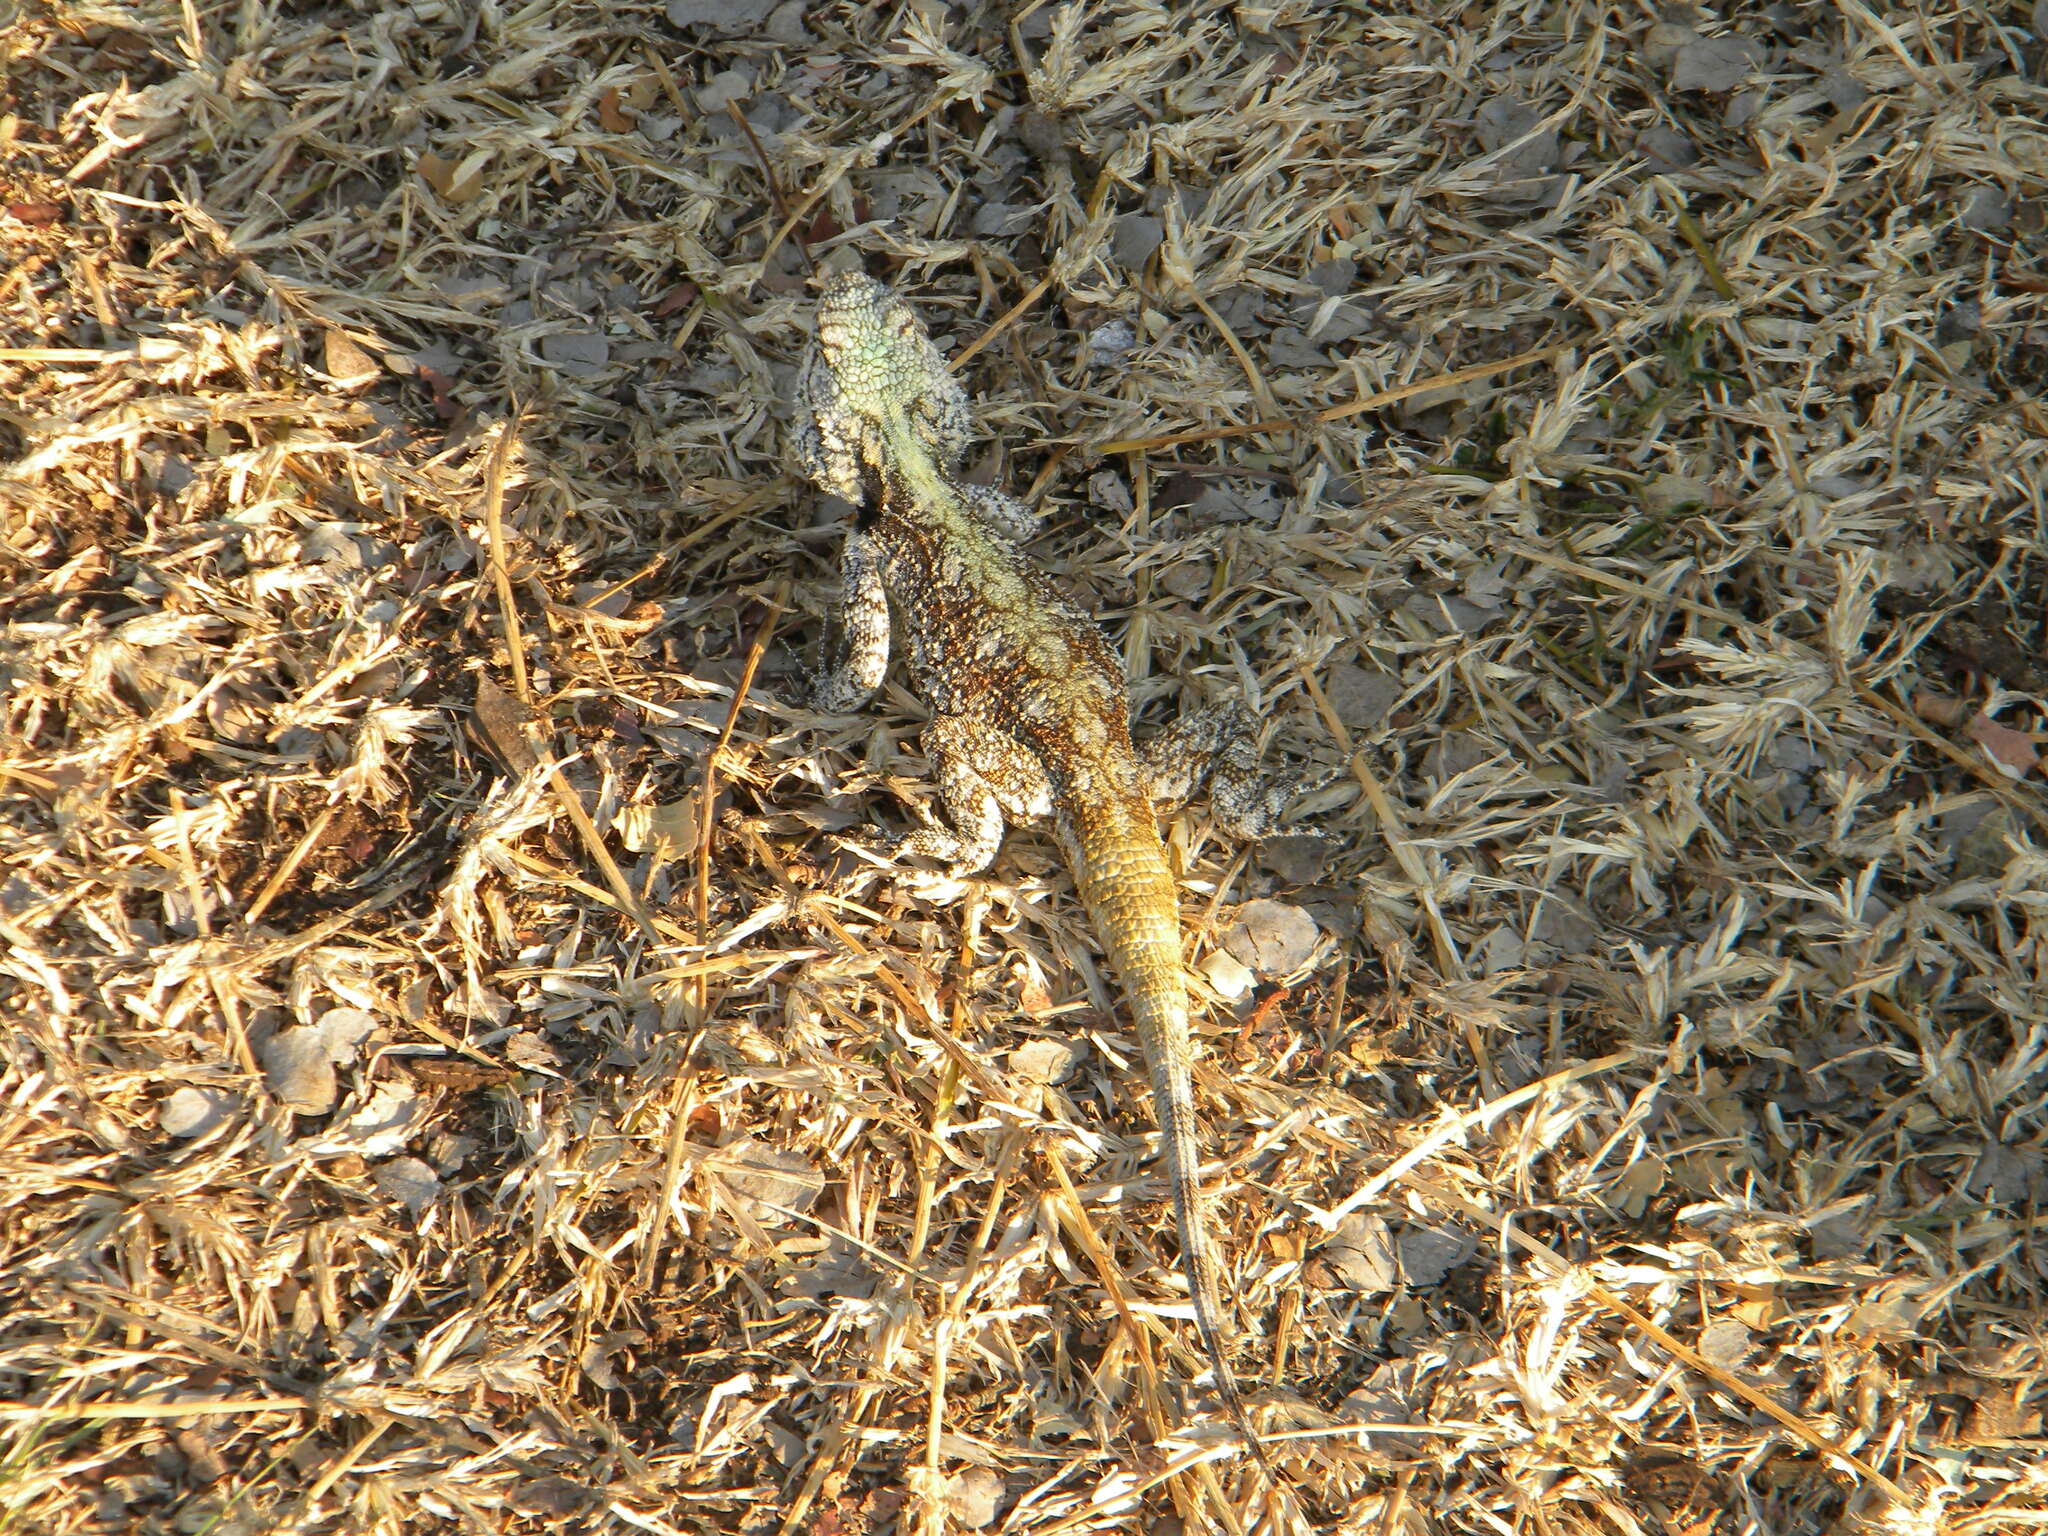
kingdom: Animalia
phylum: Chordata
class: Squamata
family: Agamidae
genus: Acanthocercus
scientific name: Acanthocercus atricollis
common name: Southern tree agama
